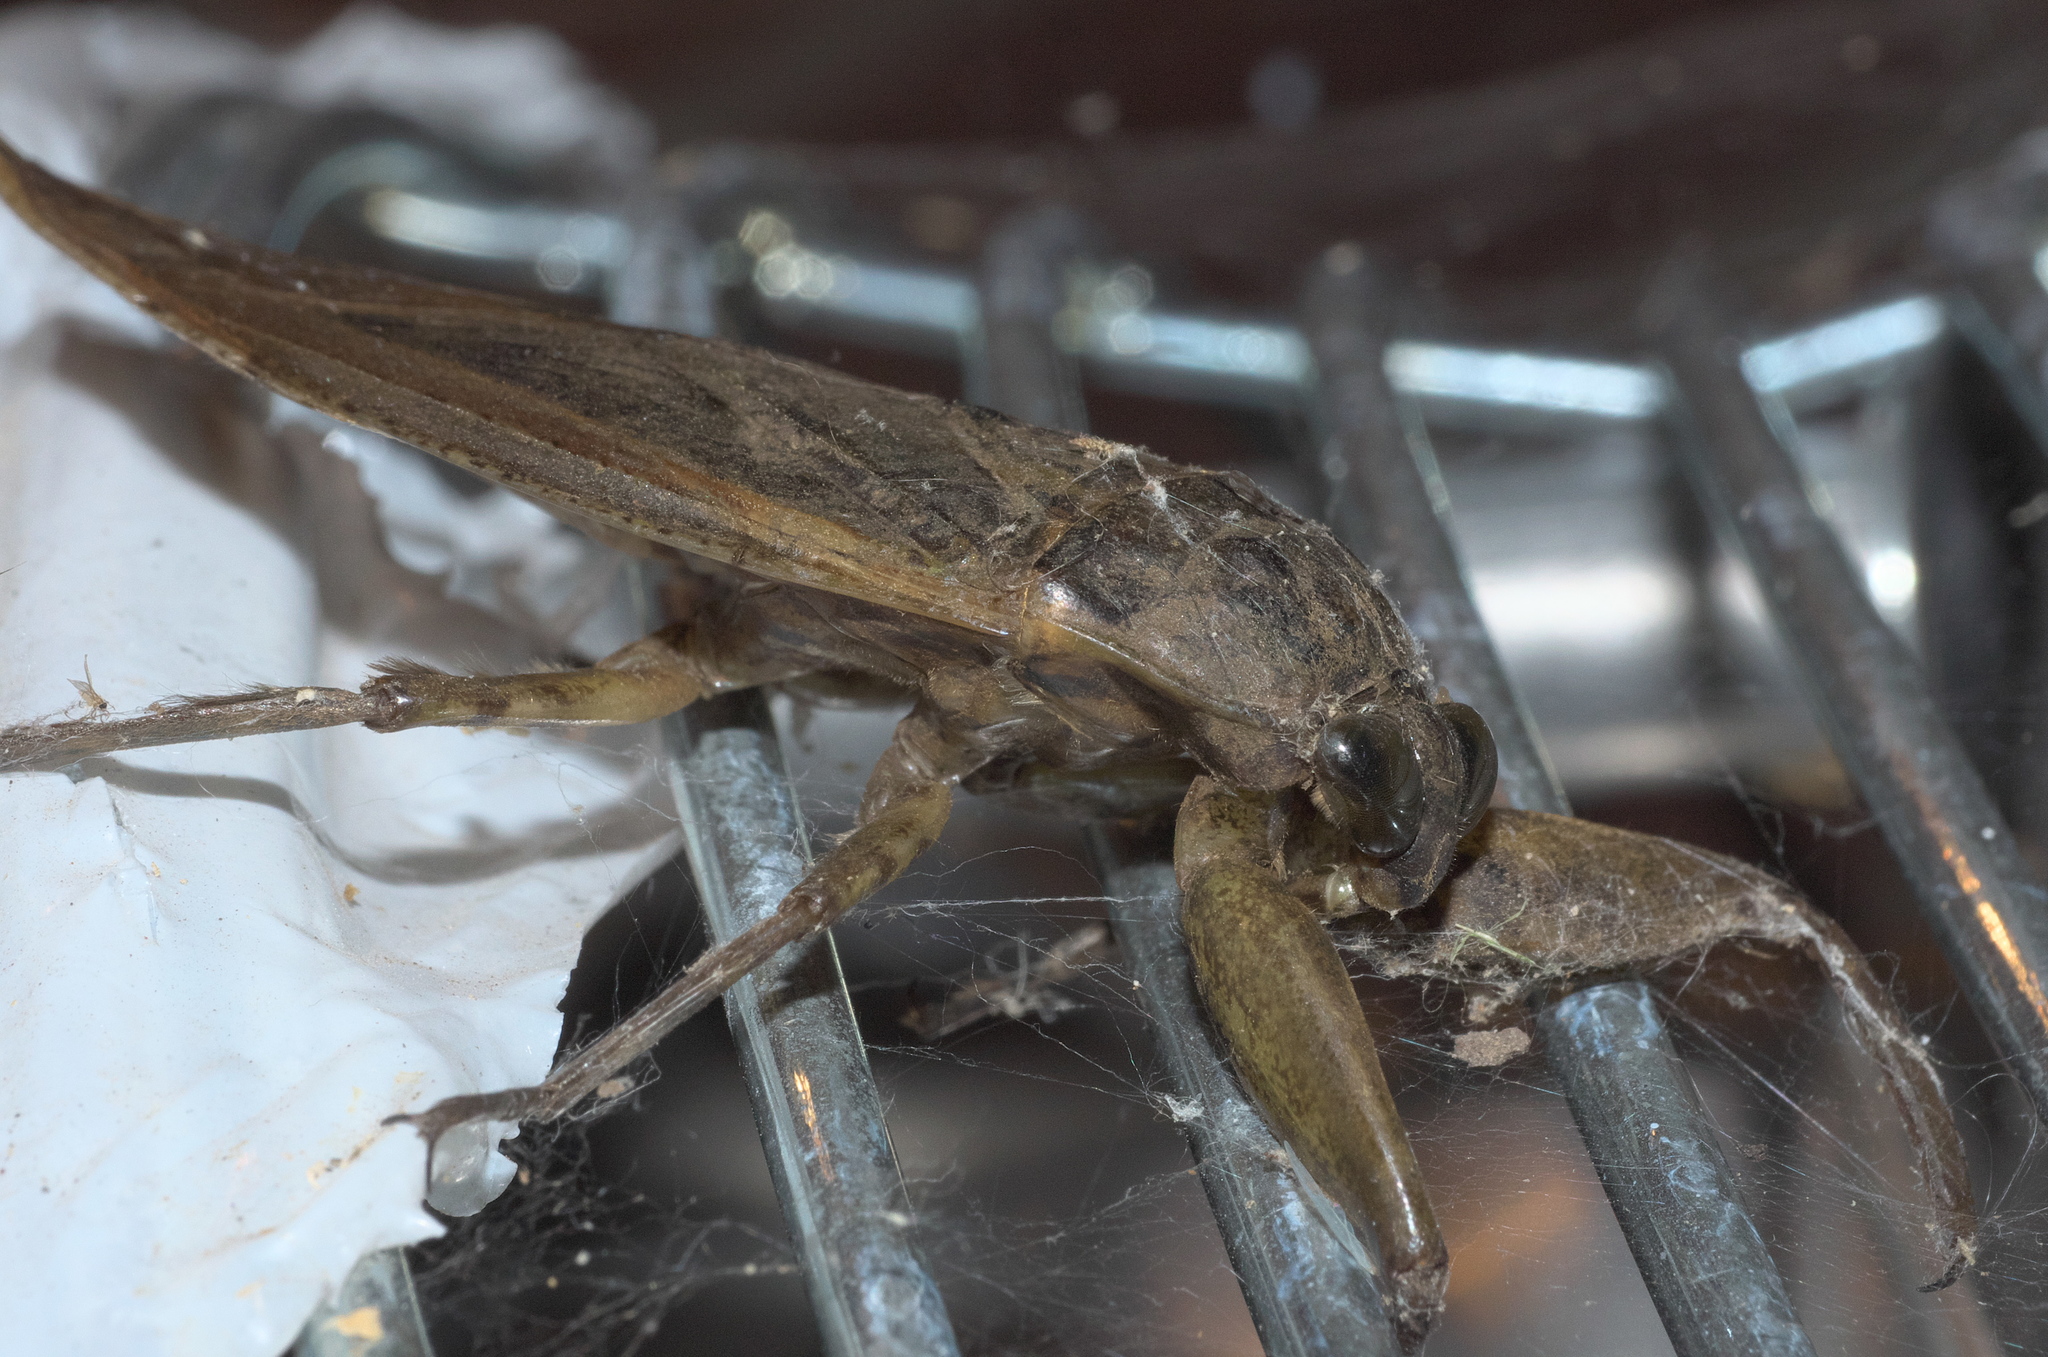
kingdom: Animalia
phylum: Arthropoda
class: Insecta
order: Hemiptera
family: Belostomatidae
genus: Lethocerus
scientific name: Lethocerus uhleri
